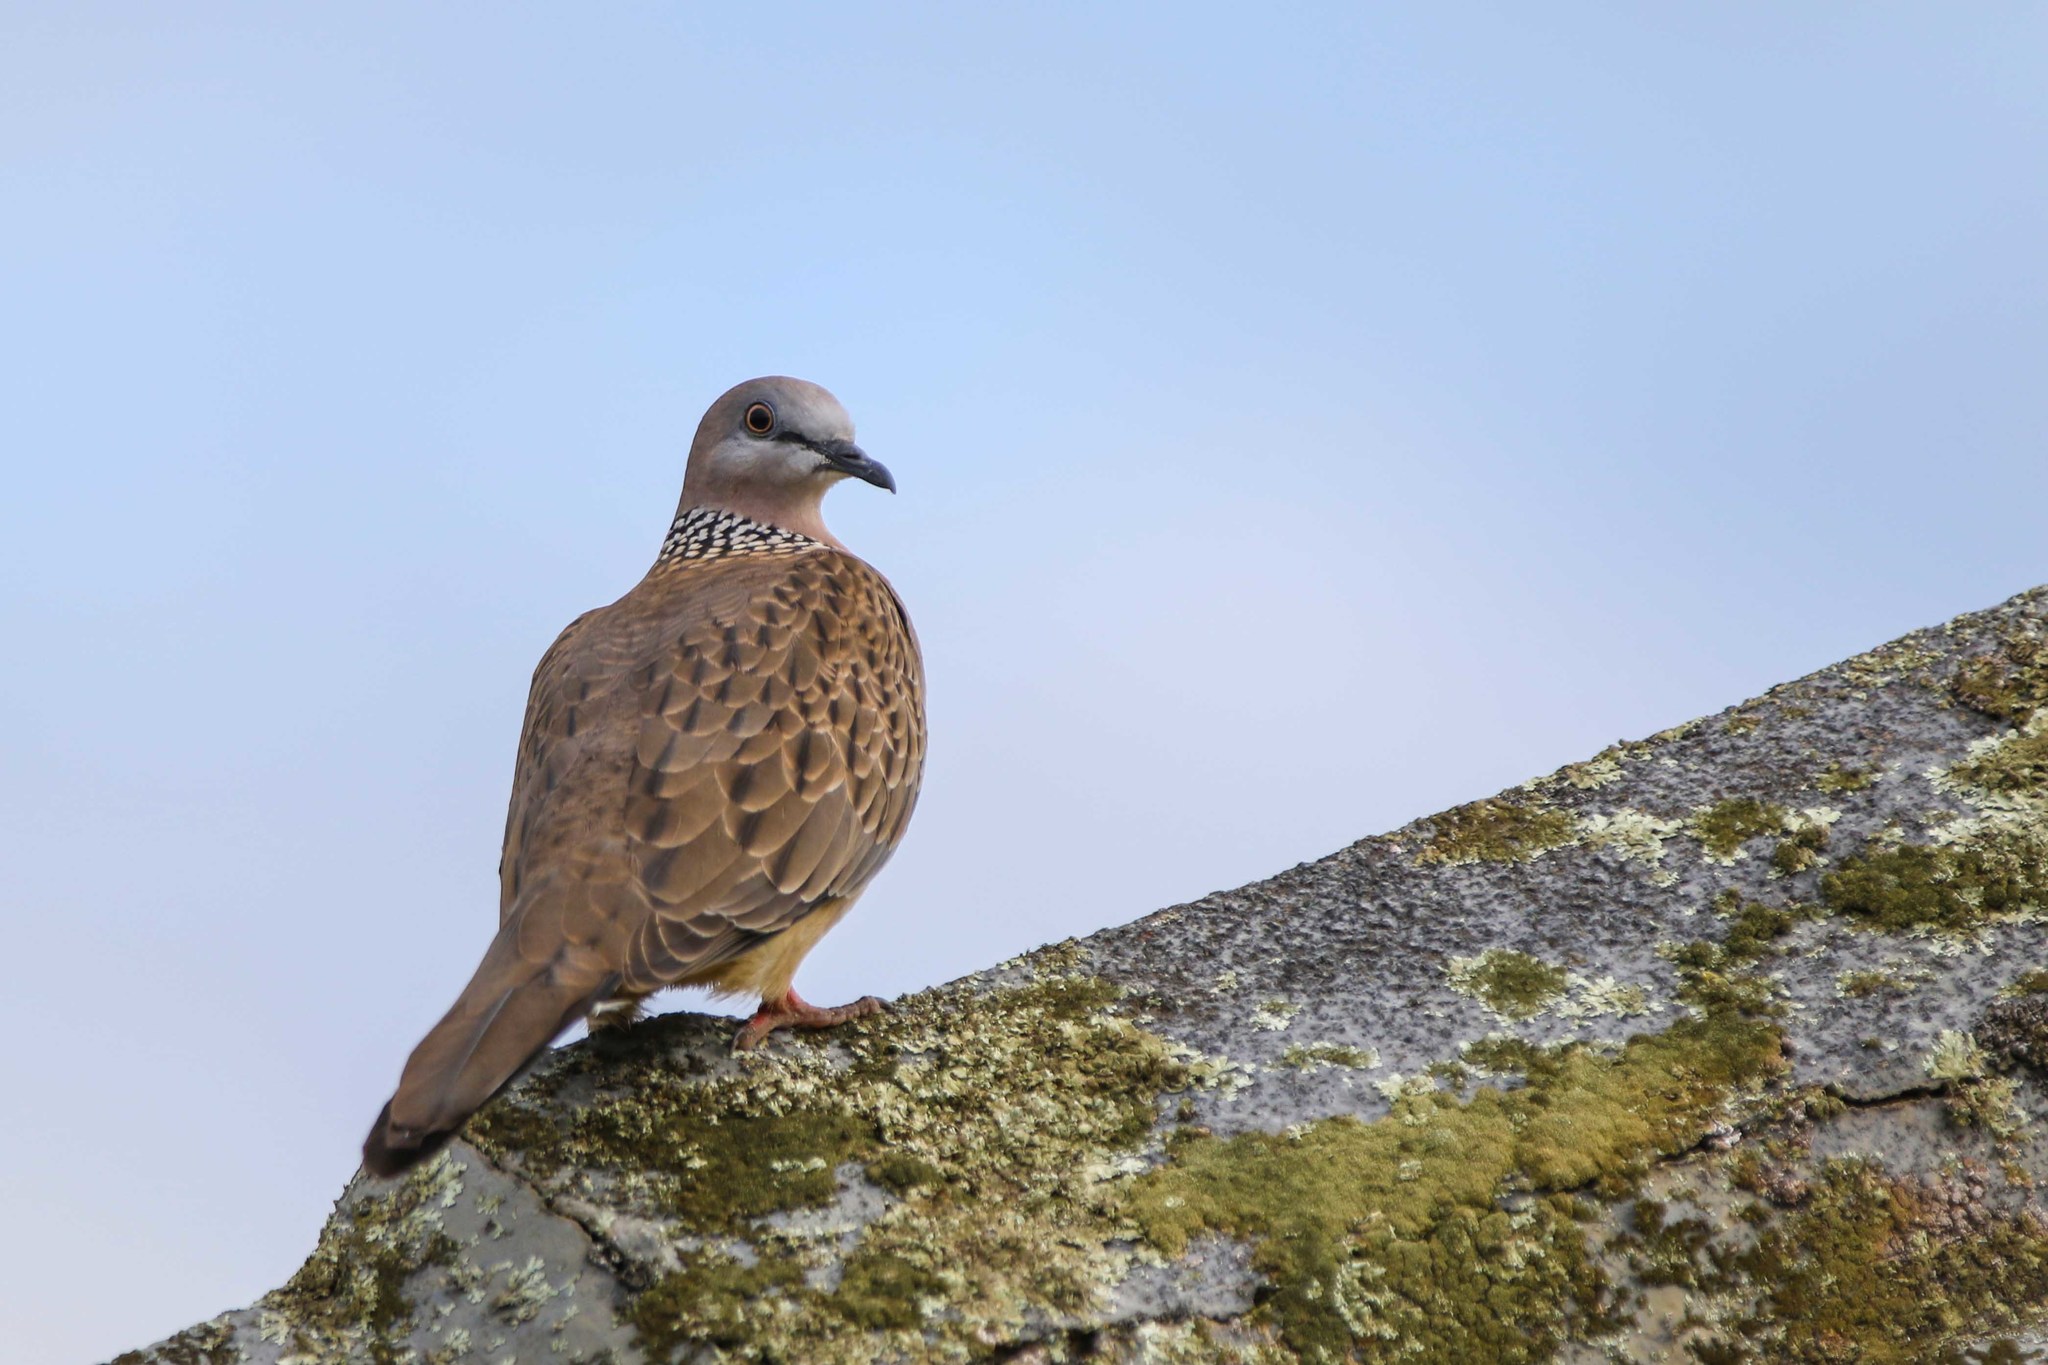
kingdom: Animalia
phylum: Chordata
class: Aves
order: Columbiformes
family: Columbidae
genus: Spilopelia
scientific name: Spilopelia chinensis
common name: Spotted dove
